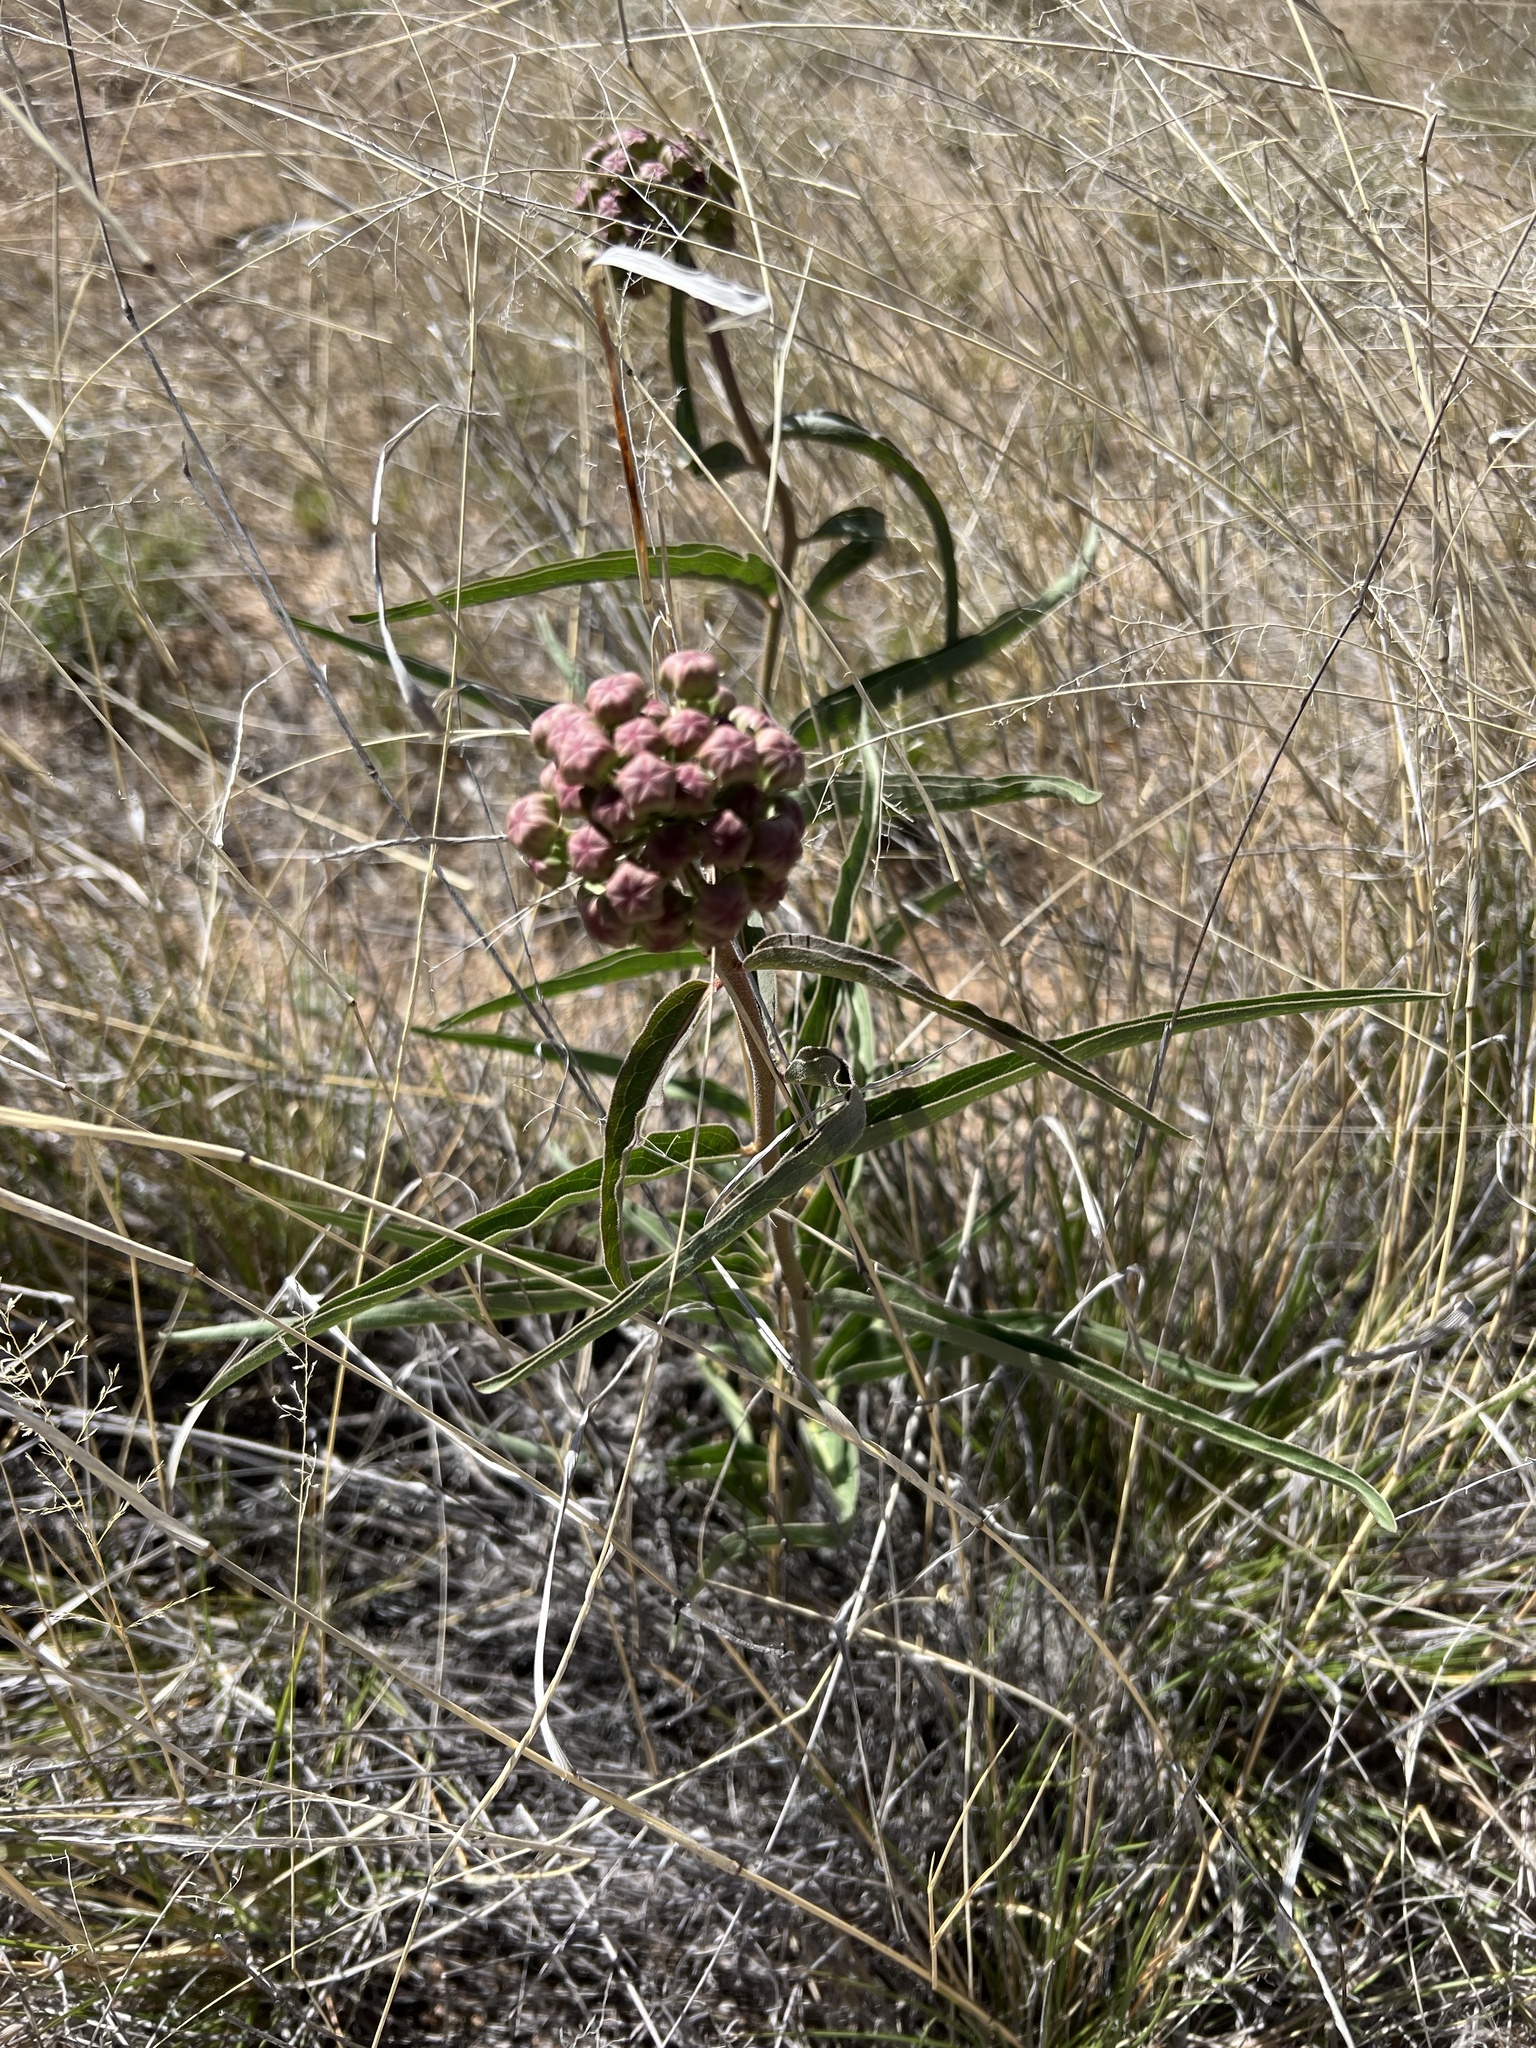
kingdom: Plantae
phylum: Tracheophyta
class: Magnoliopsida
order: Gentianales
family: Apocynaceae
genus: Asclepias
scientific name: Asclepias asperula
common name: Antelope horns
